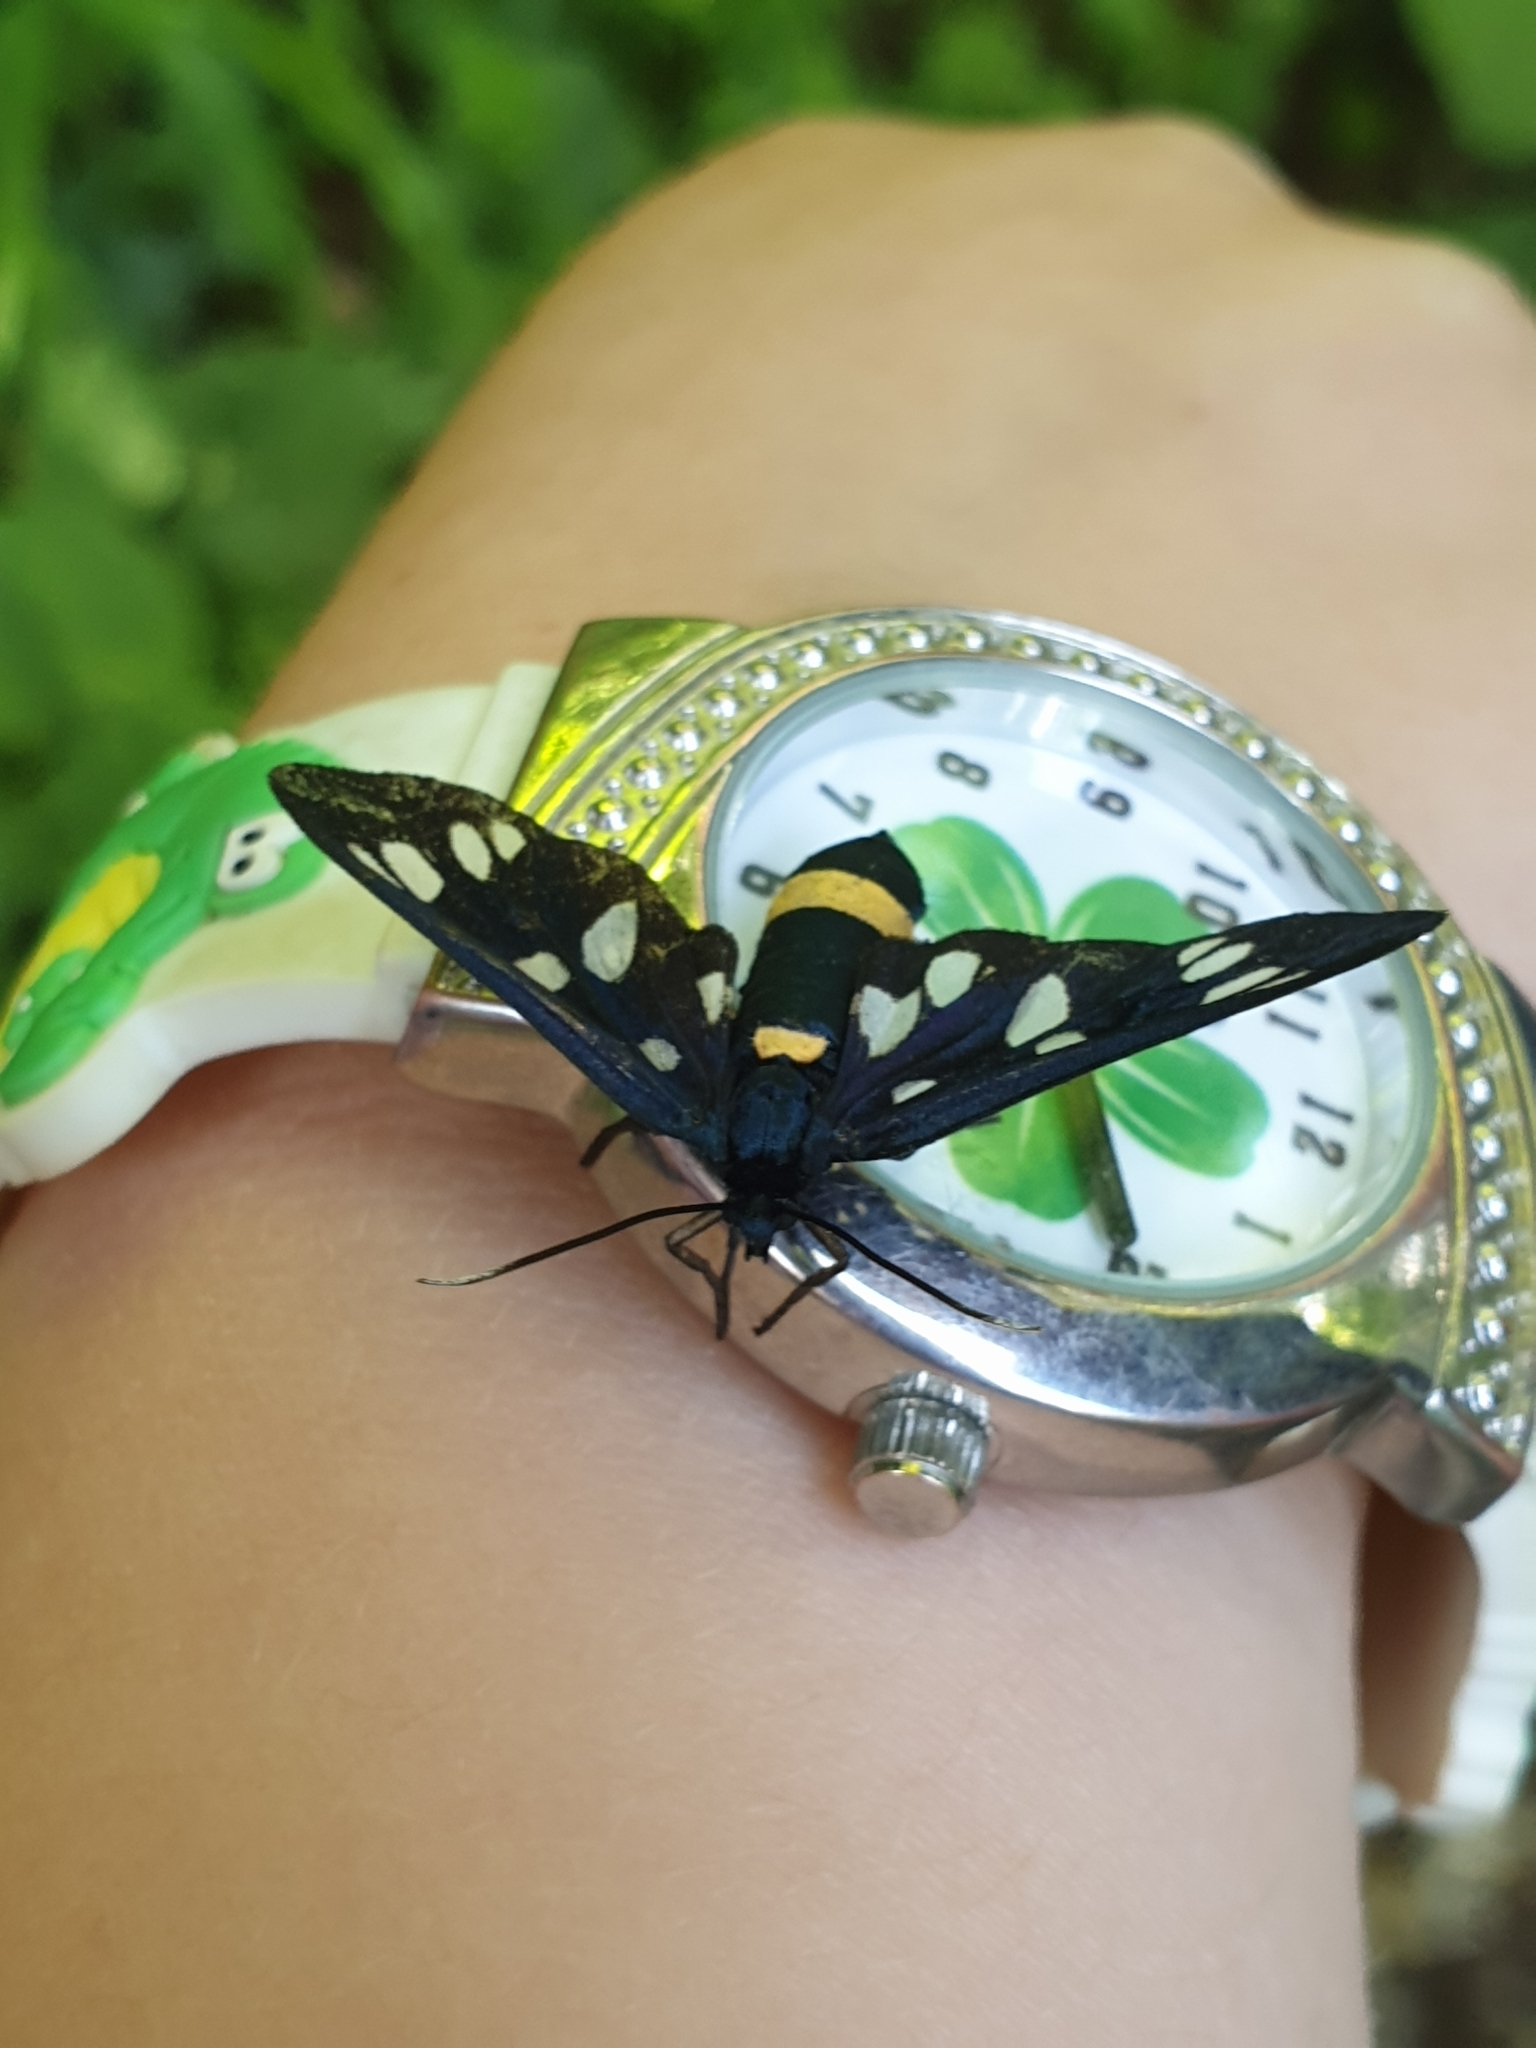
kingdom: Animalia
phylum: Arthropoda
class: Insecta
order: Lepidoptera
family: Erebidae
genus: Amata
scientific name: Amata phegea
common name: Nine-spotted
